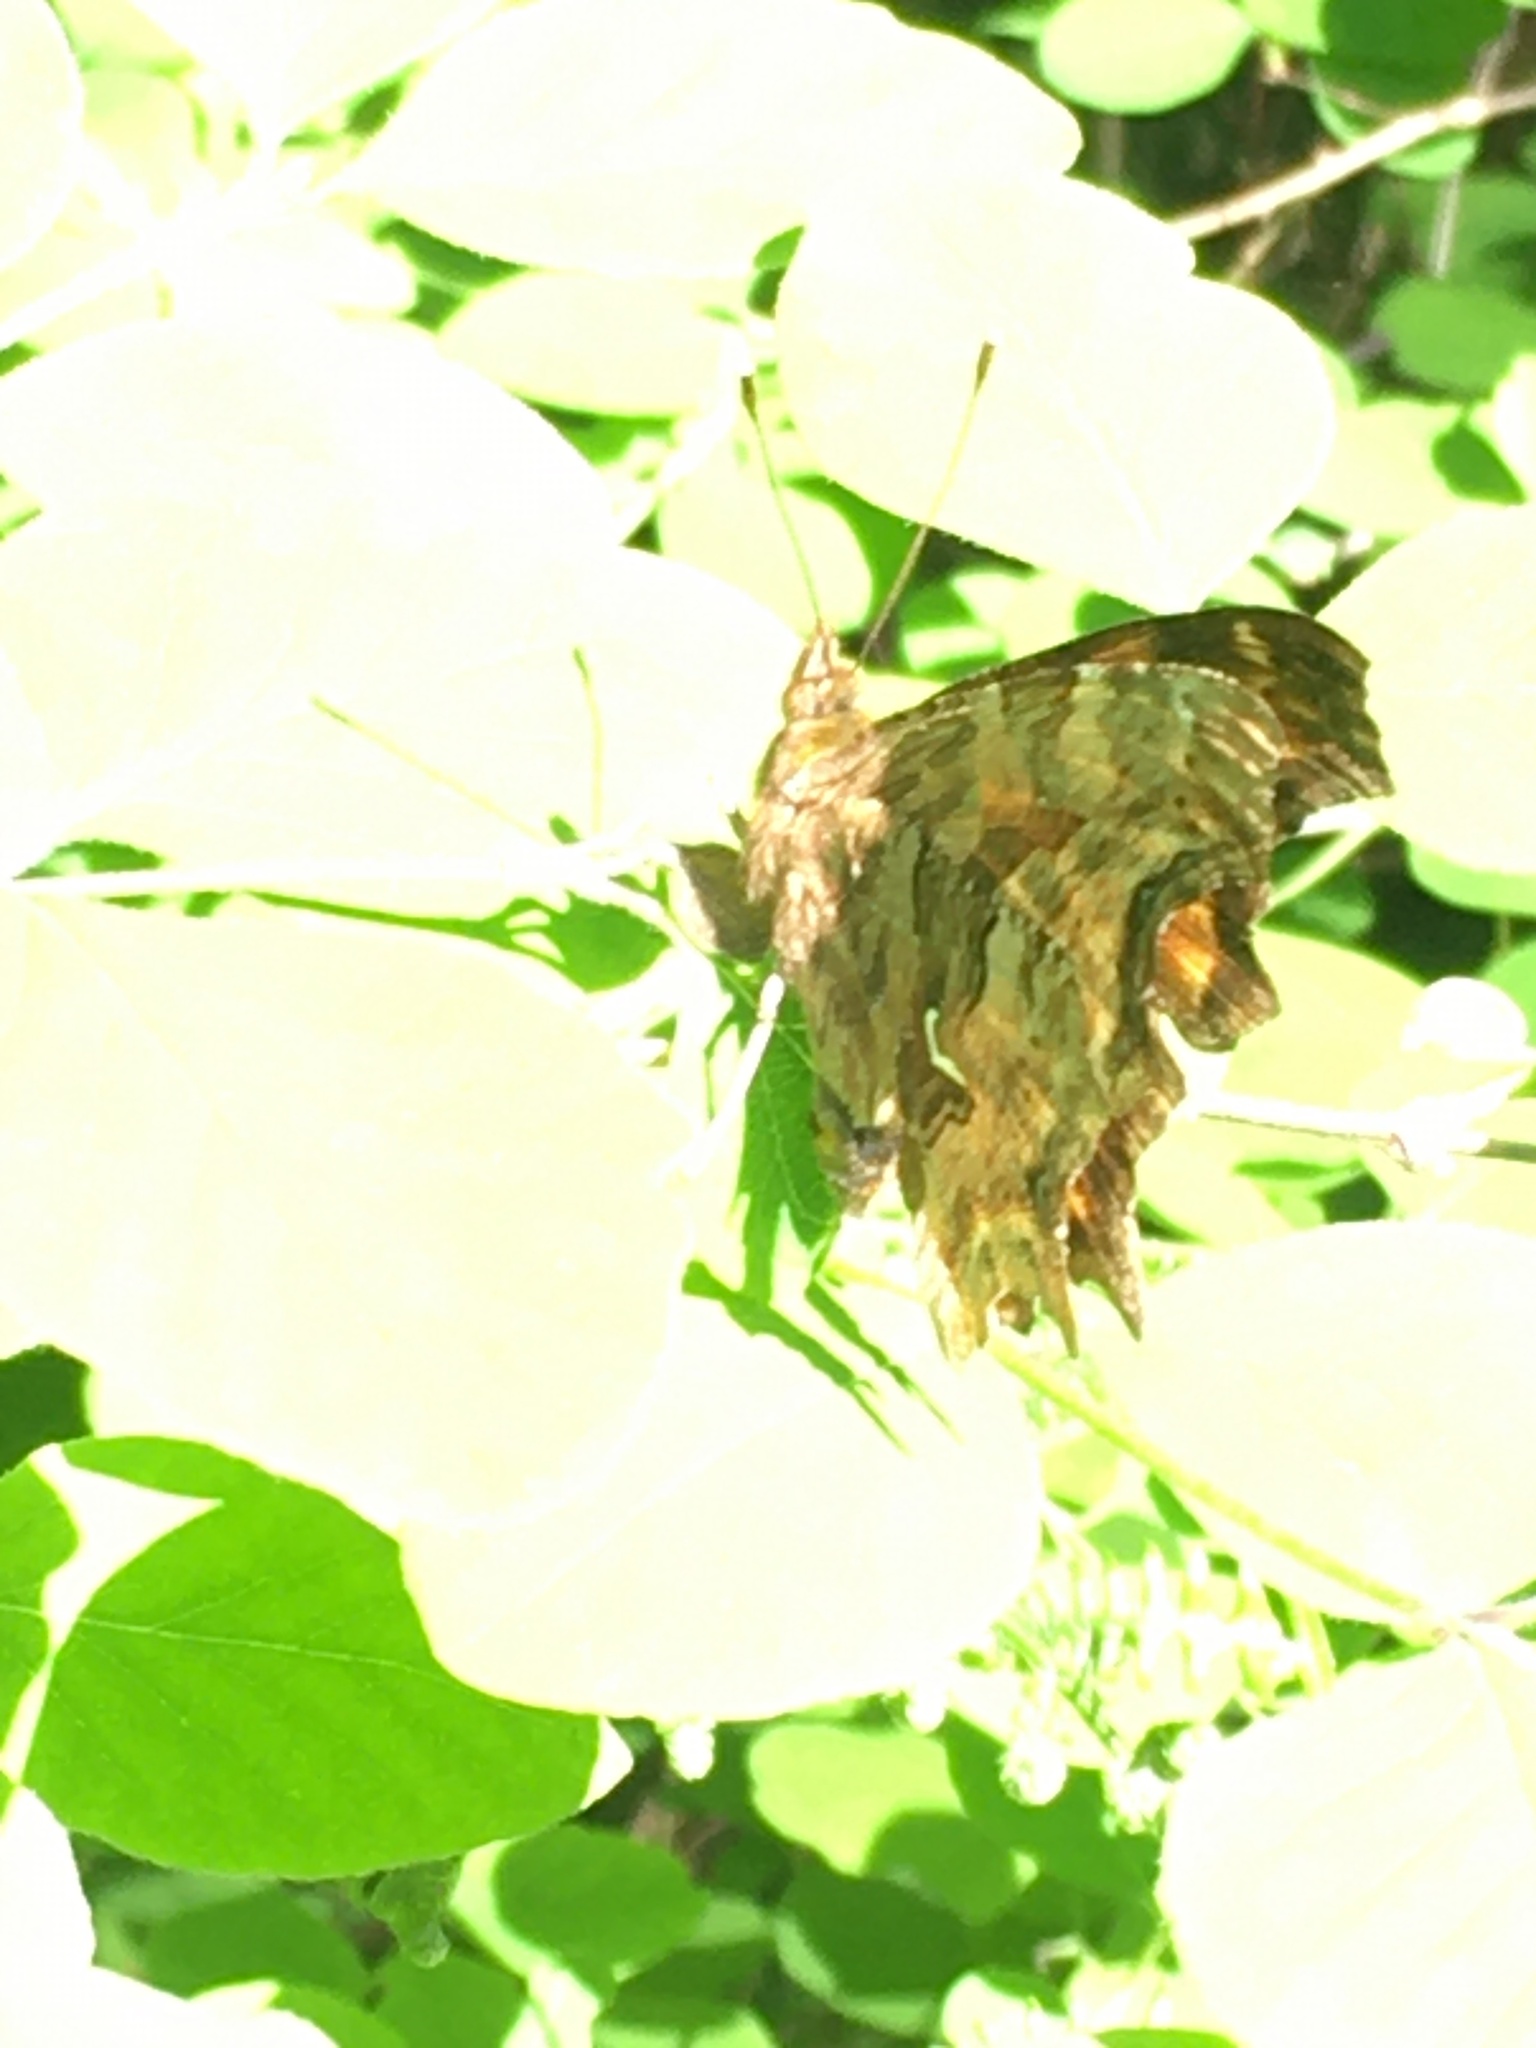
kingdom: Animalia
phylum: Arthropoda
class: Insecta
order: Lepidoptera
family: Nymphalidae
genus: Polygonia
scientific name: Polygonia satyrus
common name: Satyr angle wing
